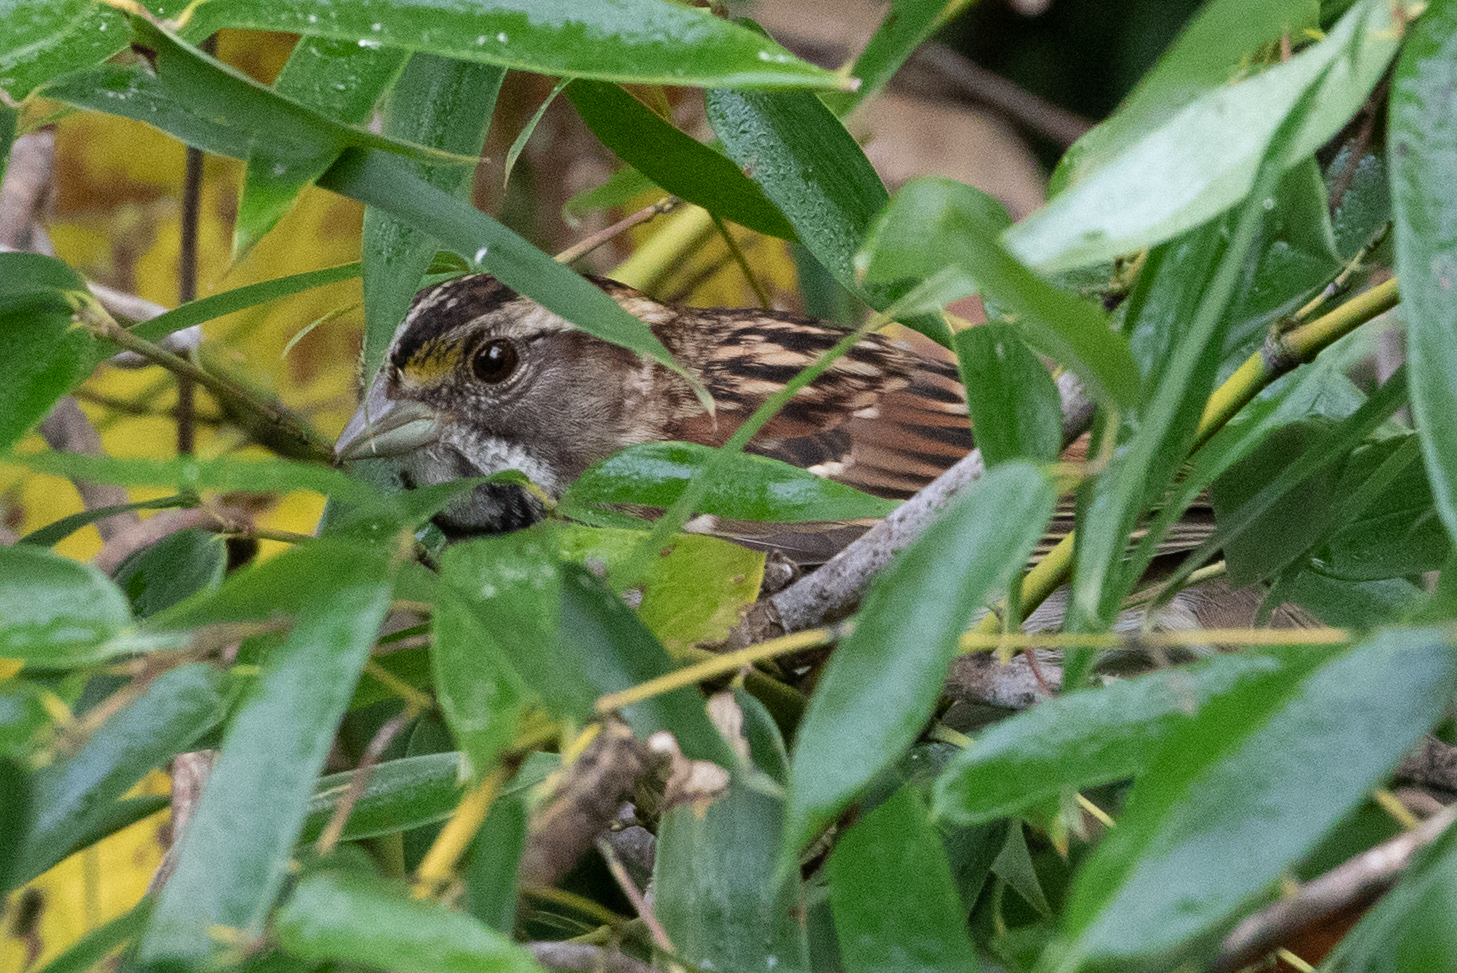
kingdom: Animalia
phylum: Chordata
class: Aves
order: Passeriformes
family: Passerellidae
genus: Zonotrichia
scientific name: Zonotrichia albicollis
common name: White-throated sparrow
